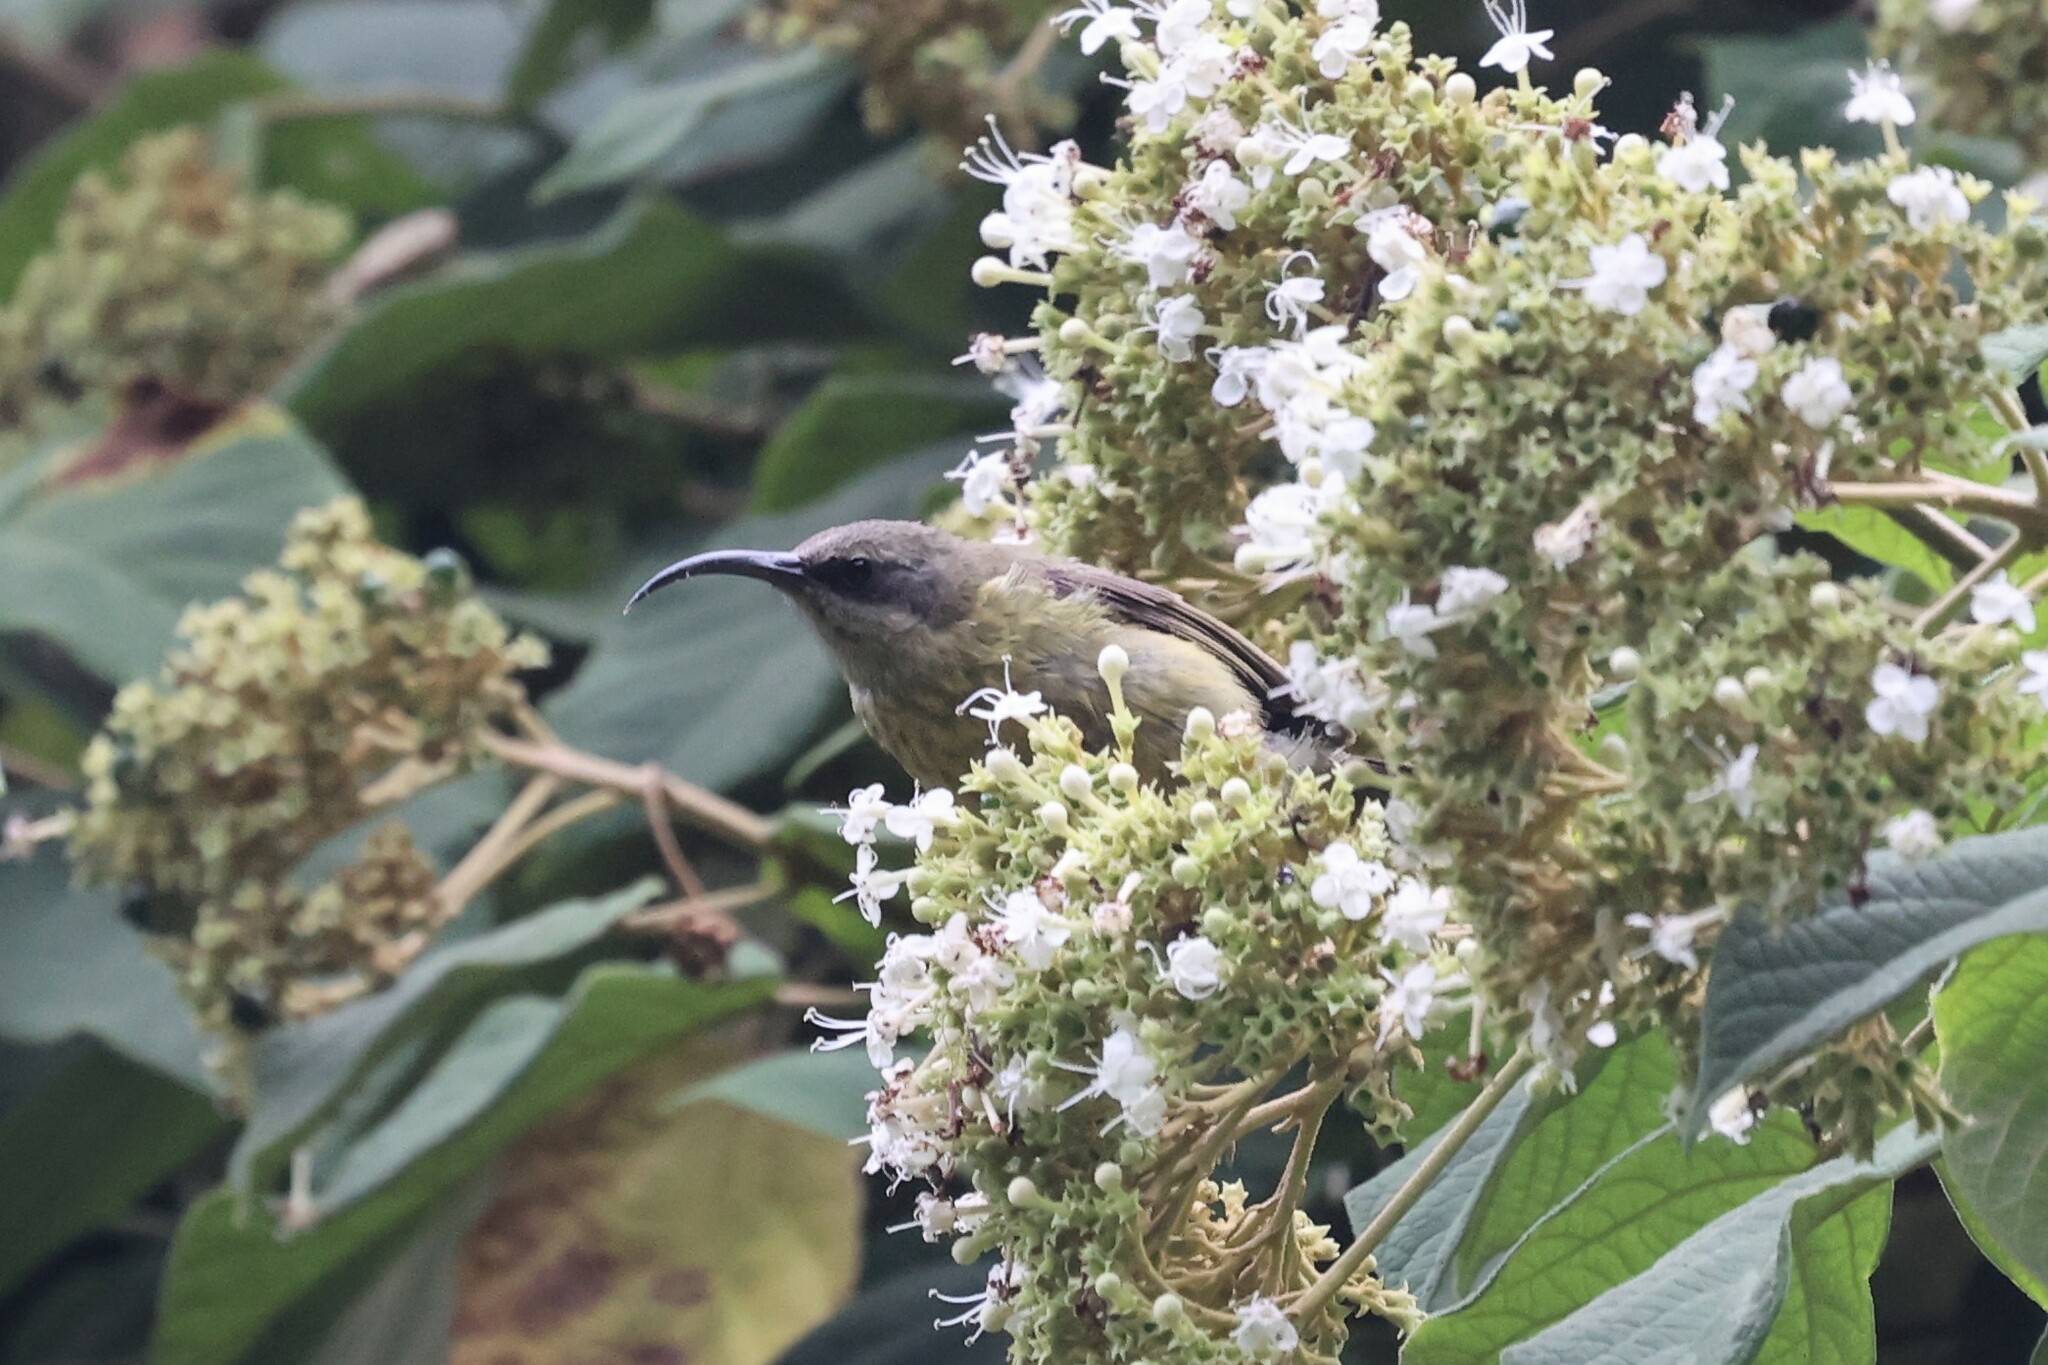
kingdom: Animalia
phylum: Chordata
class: Aves
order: Passeriformes
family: Nectariniidae
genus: Nectarinia
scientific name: Nectarinia kilimensis
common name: Bronzy sunbird
